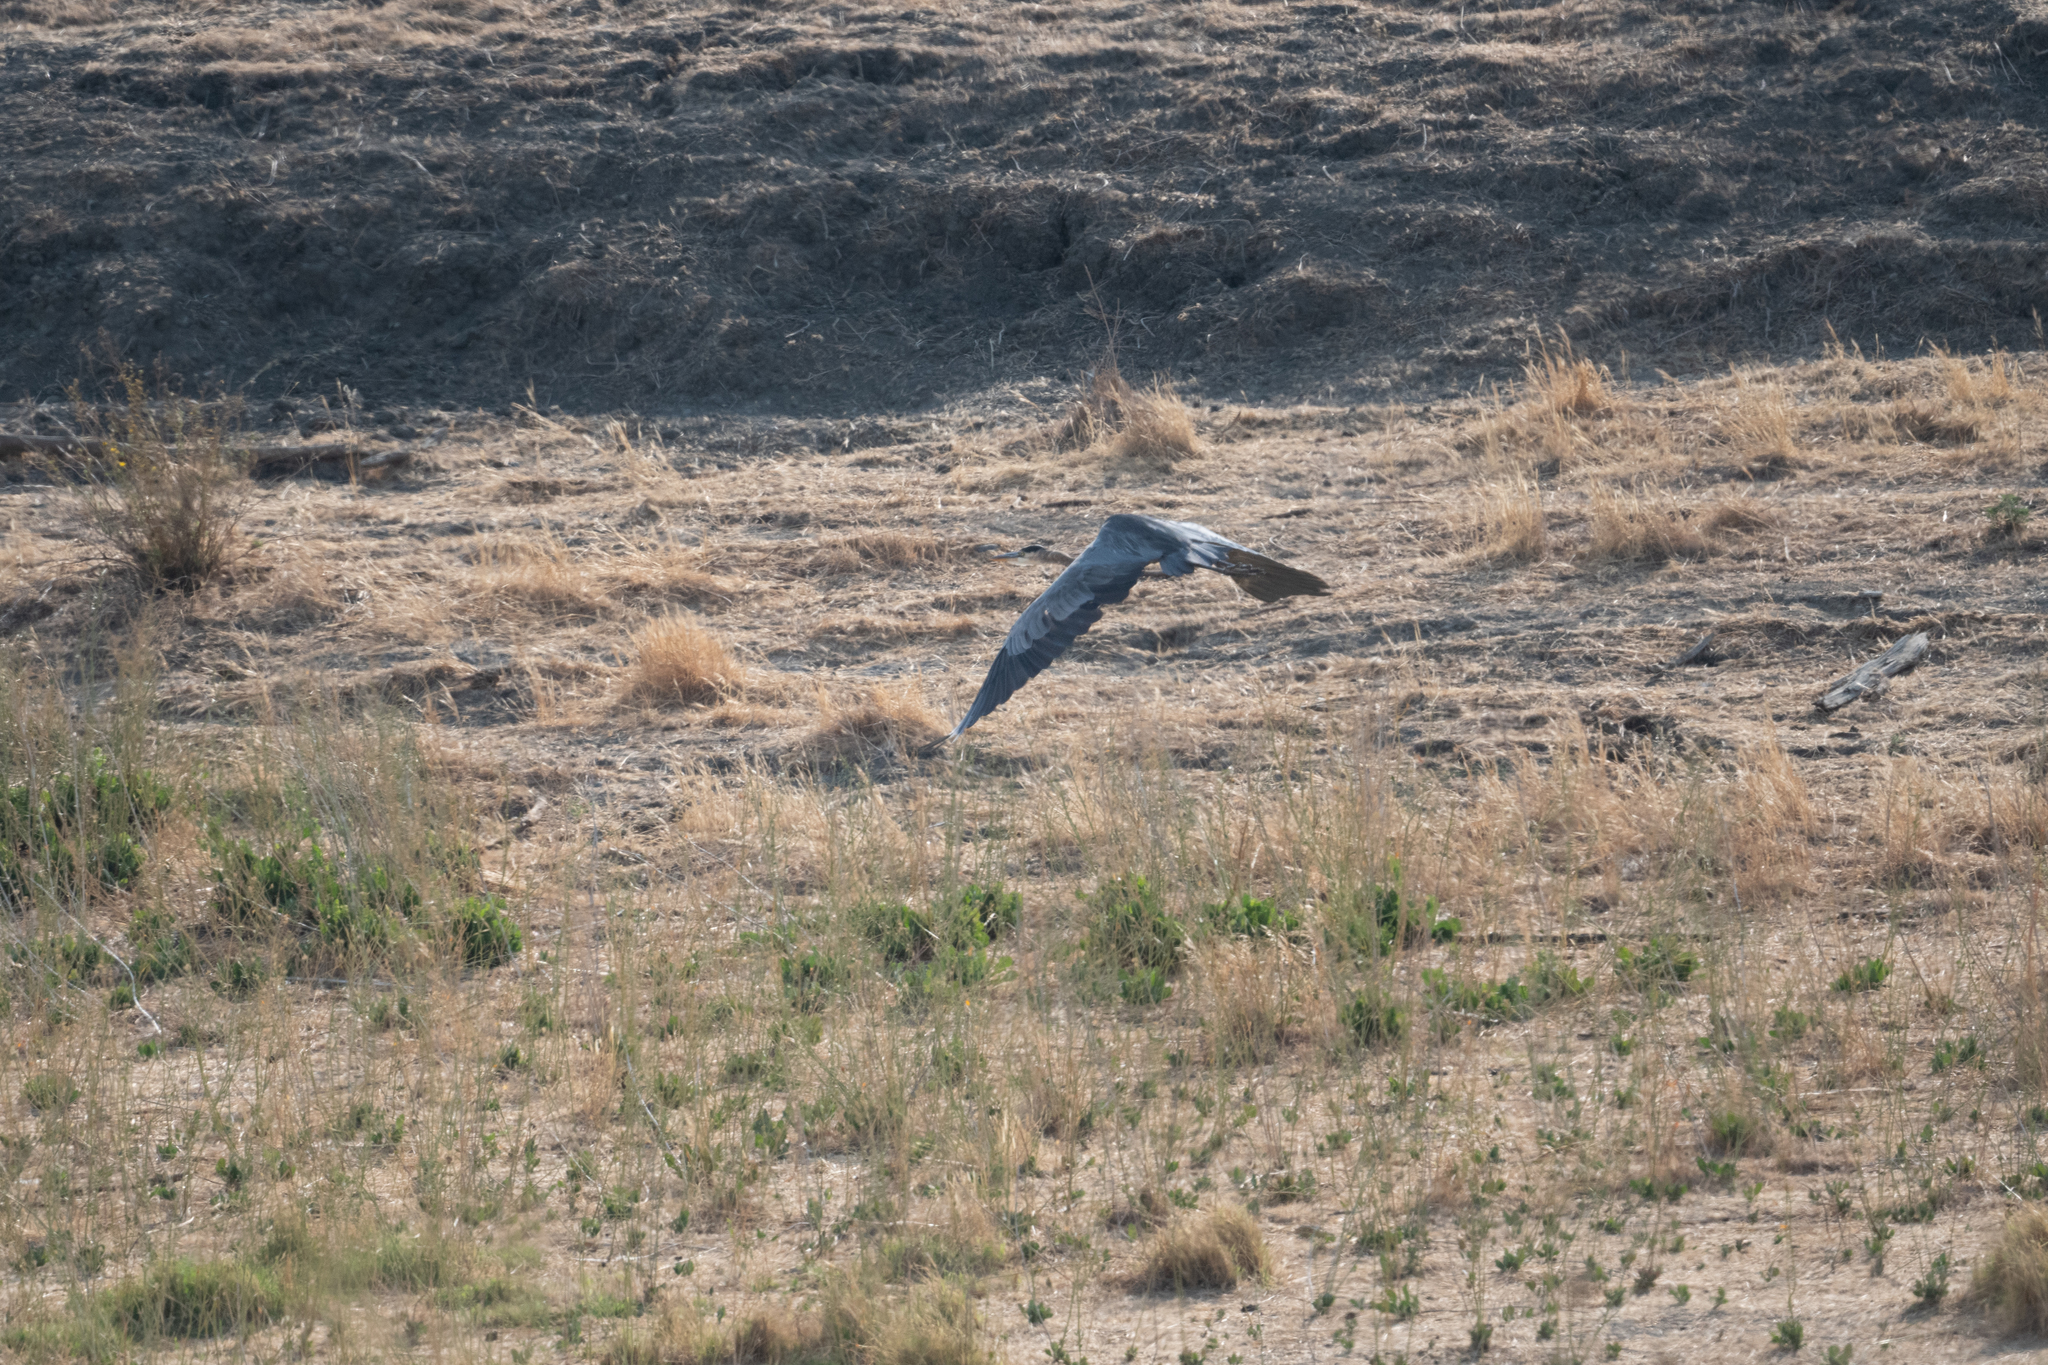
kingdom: Animalia
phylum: Chordata
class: Aves
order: Pelecaniformes
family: Ardeidae
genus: Ardea
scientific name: Ardea herodias
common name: Great blue heron
